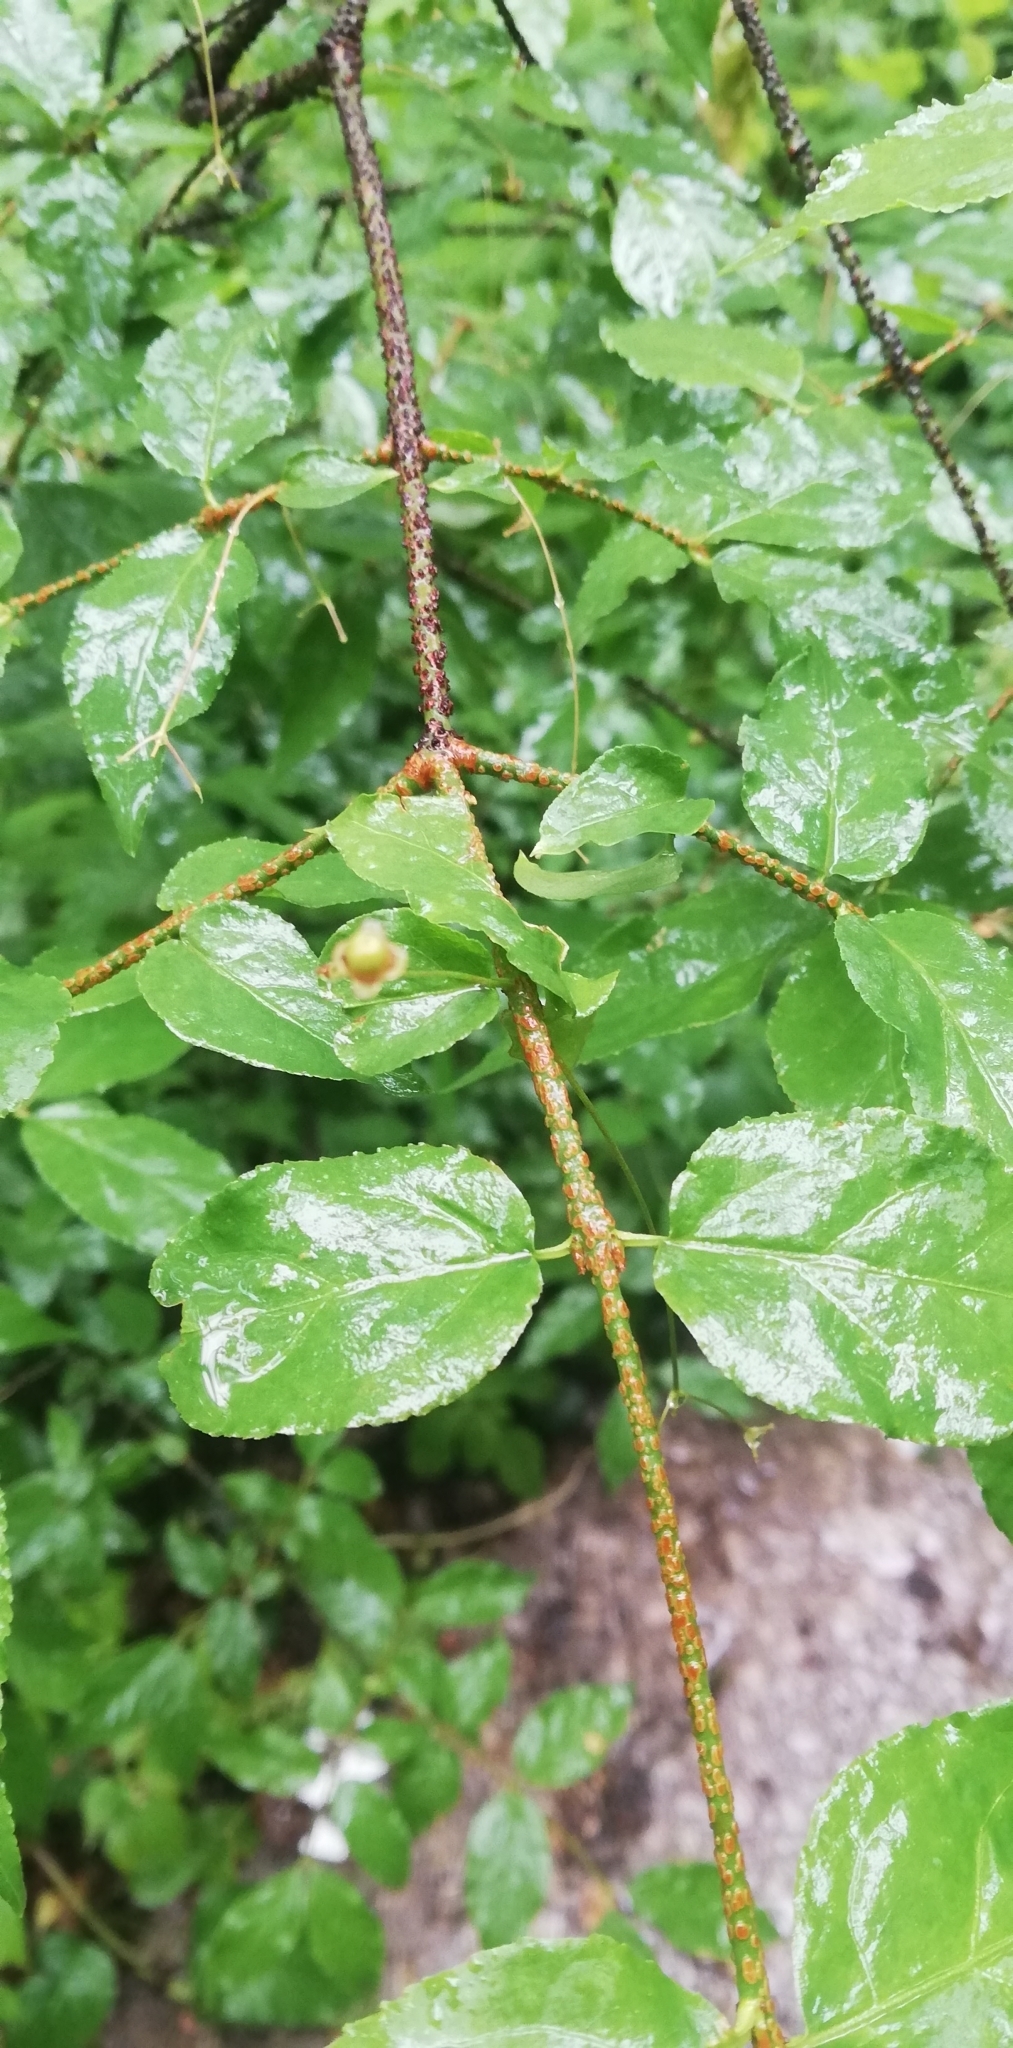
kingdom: Plantae
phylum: Tracheophyta
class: Magnoliopsida
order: Celastrales
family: Celastraceae
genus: Euonymus
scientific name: Euonymus verrucosus
